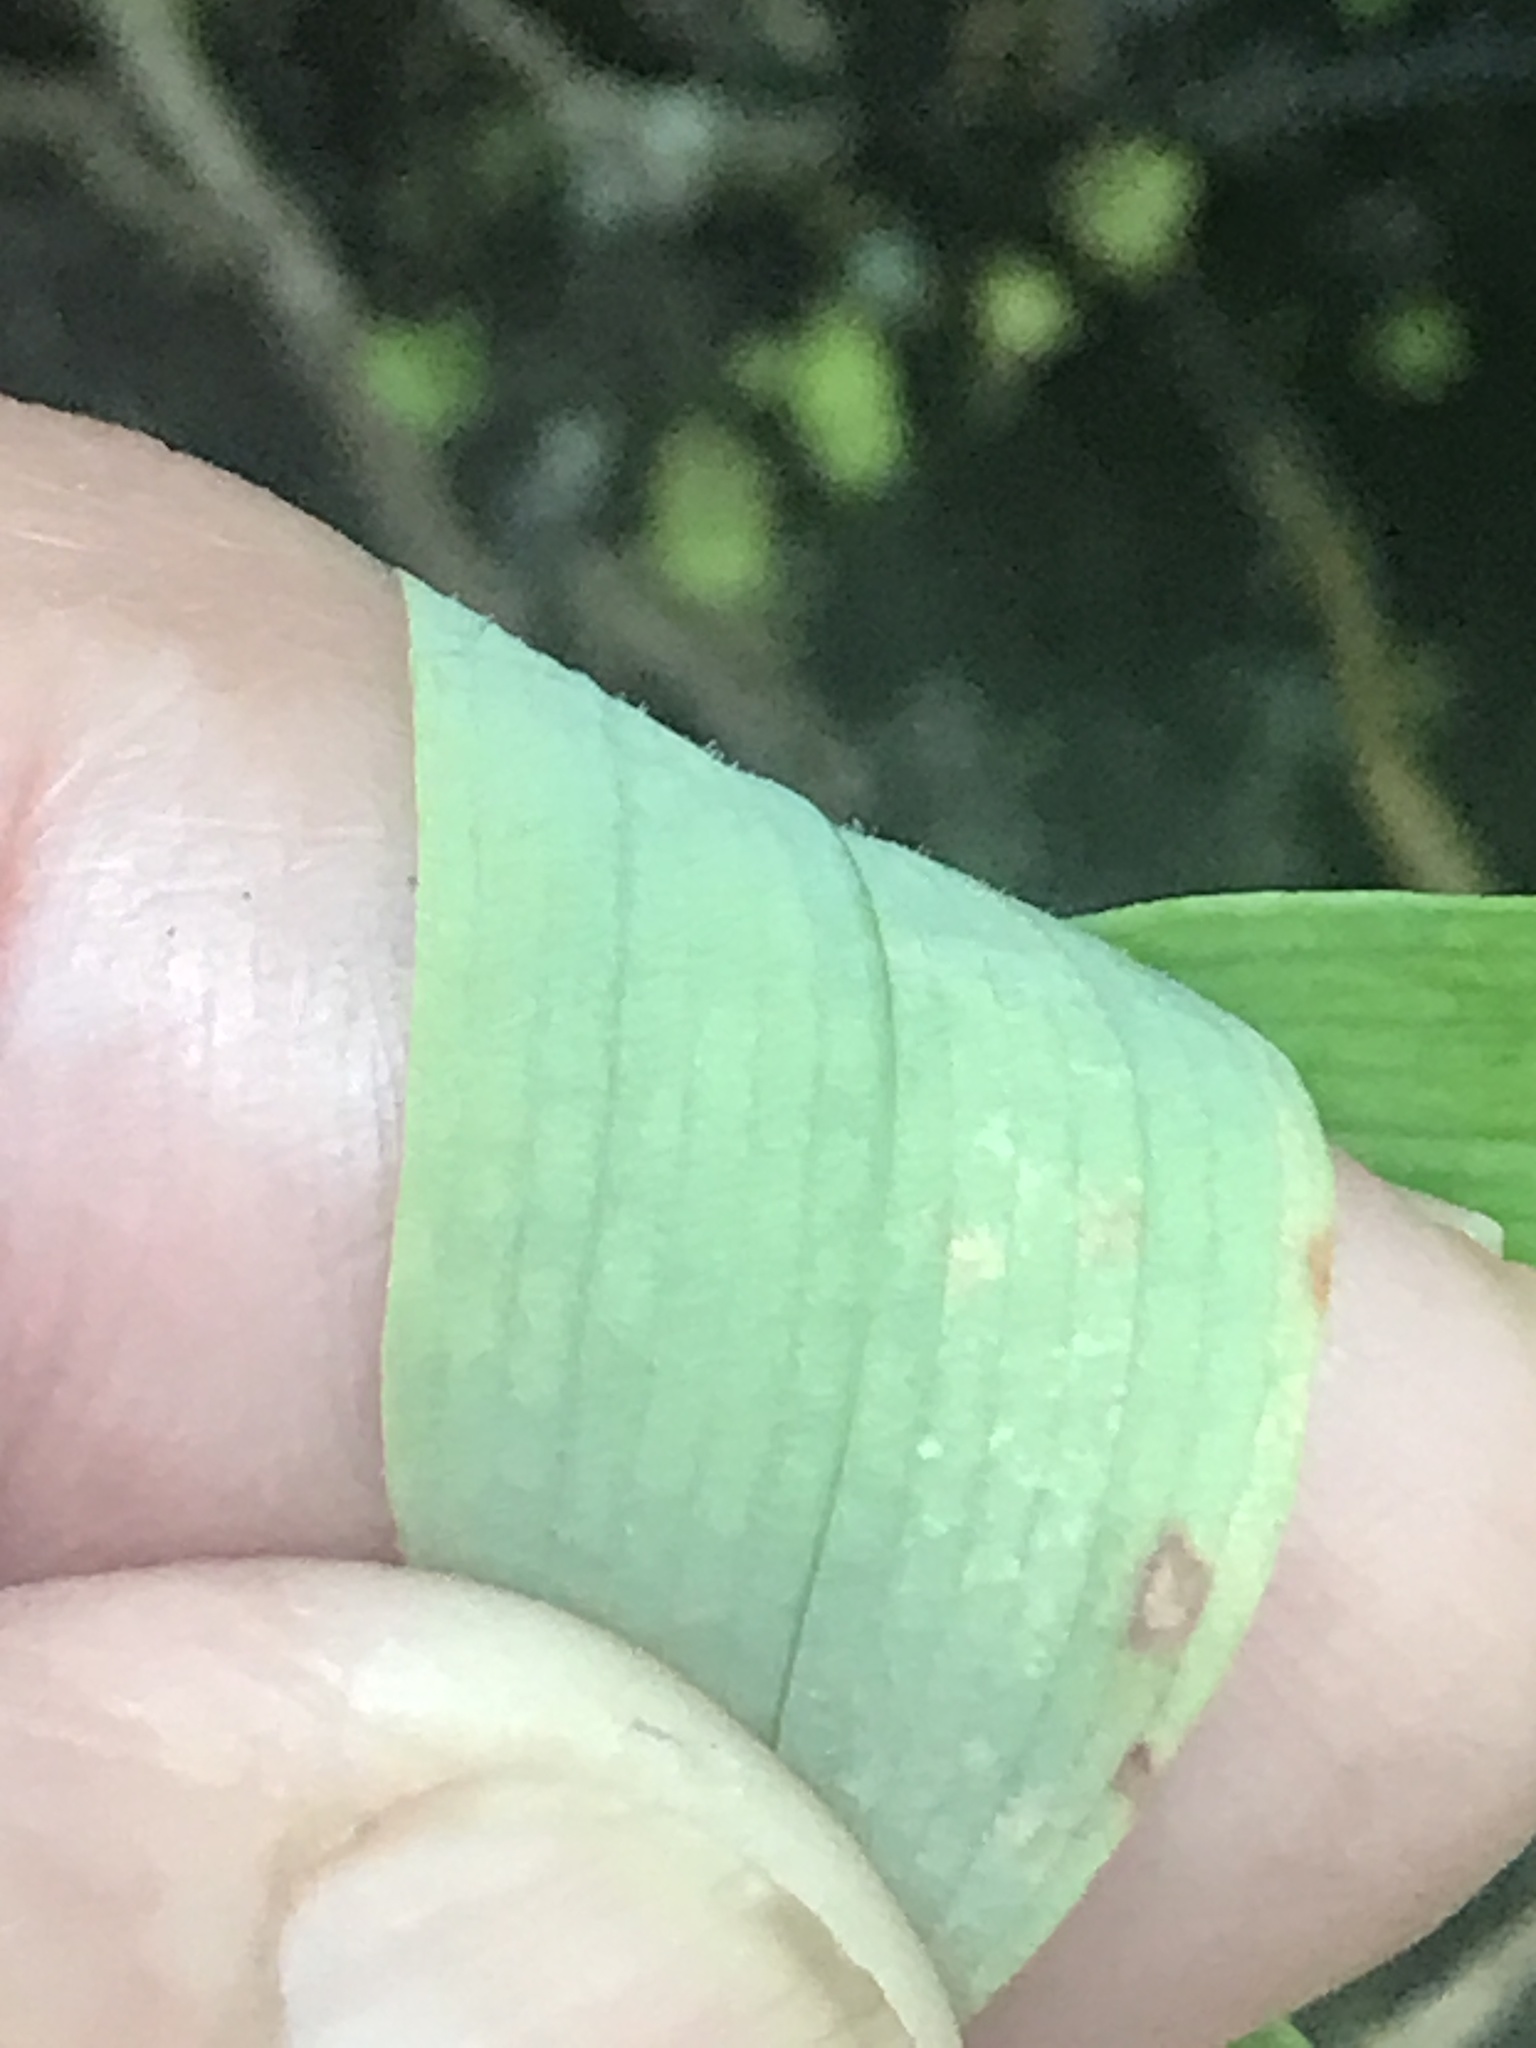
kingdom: Plantae
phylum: Tracheophyta
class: Liliopsida
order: Asparagales
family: Asparagaceae
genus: Polygonatum
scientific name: Polygonatum pubescens
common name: Downy solomon's seal
